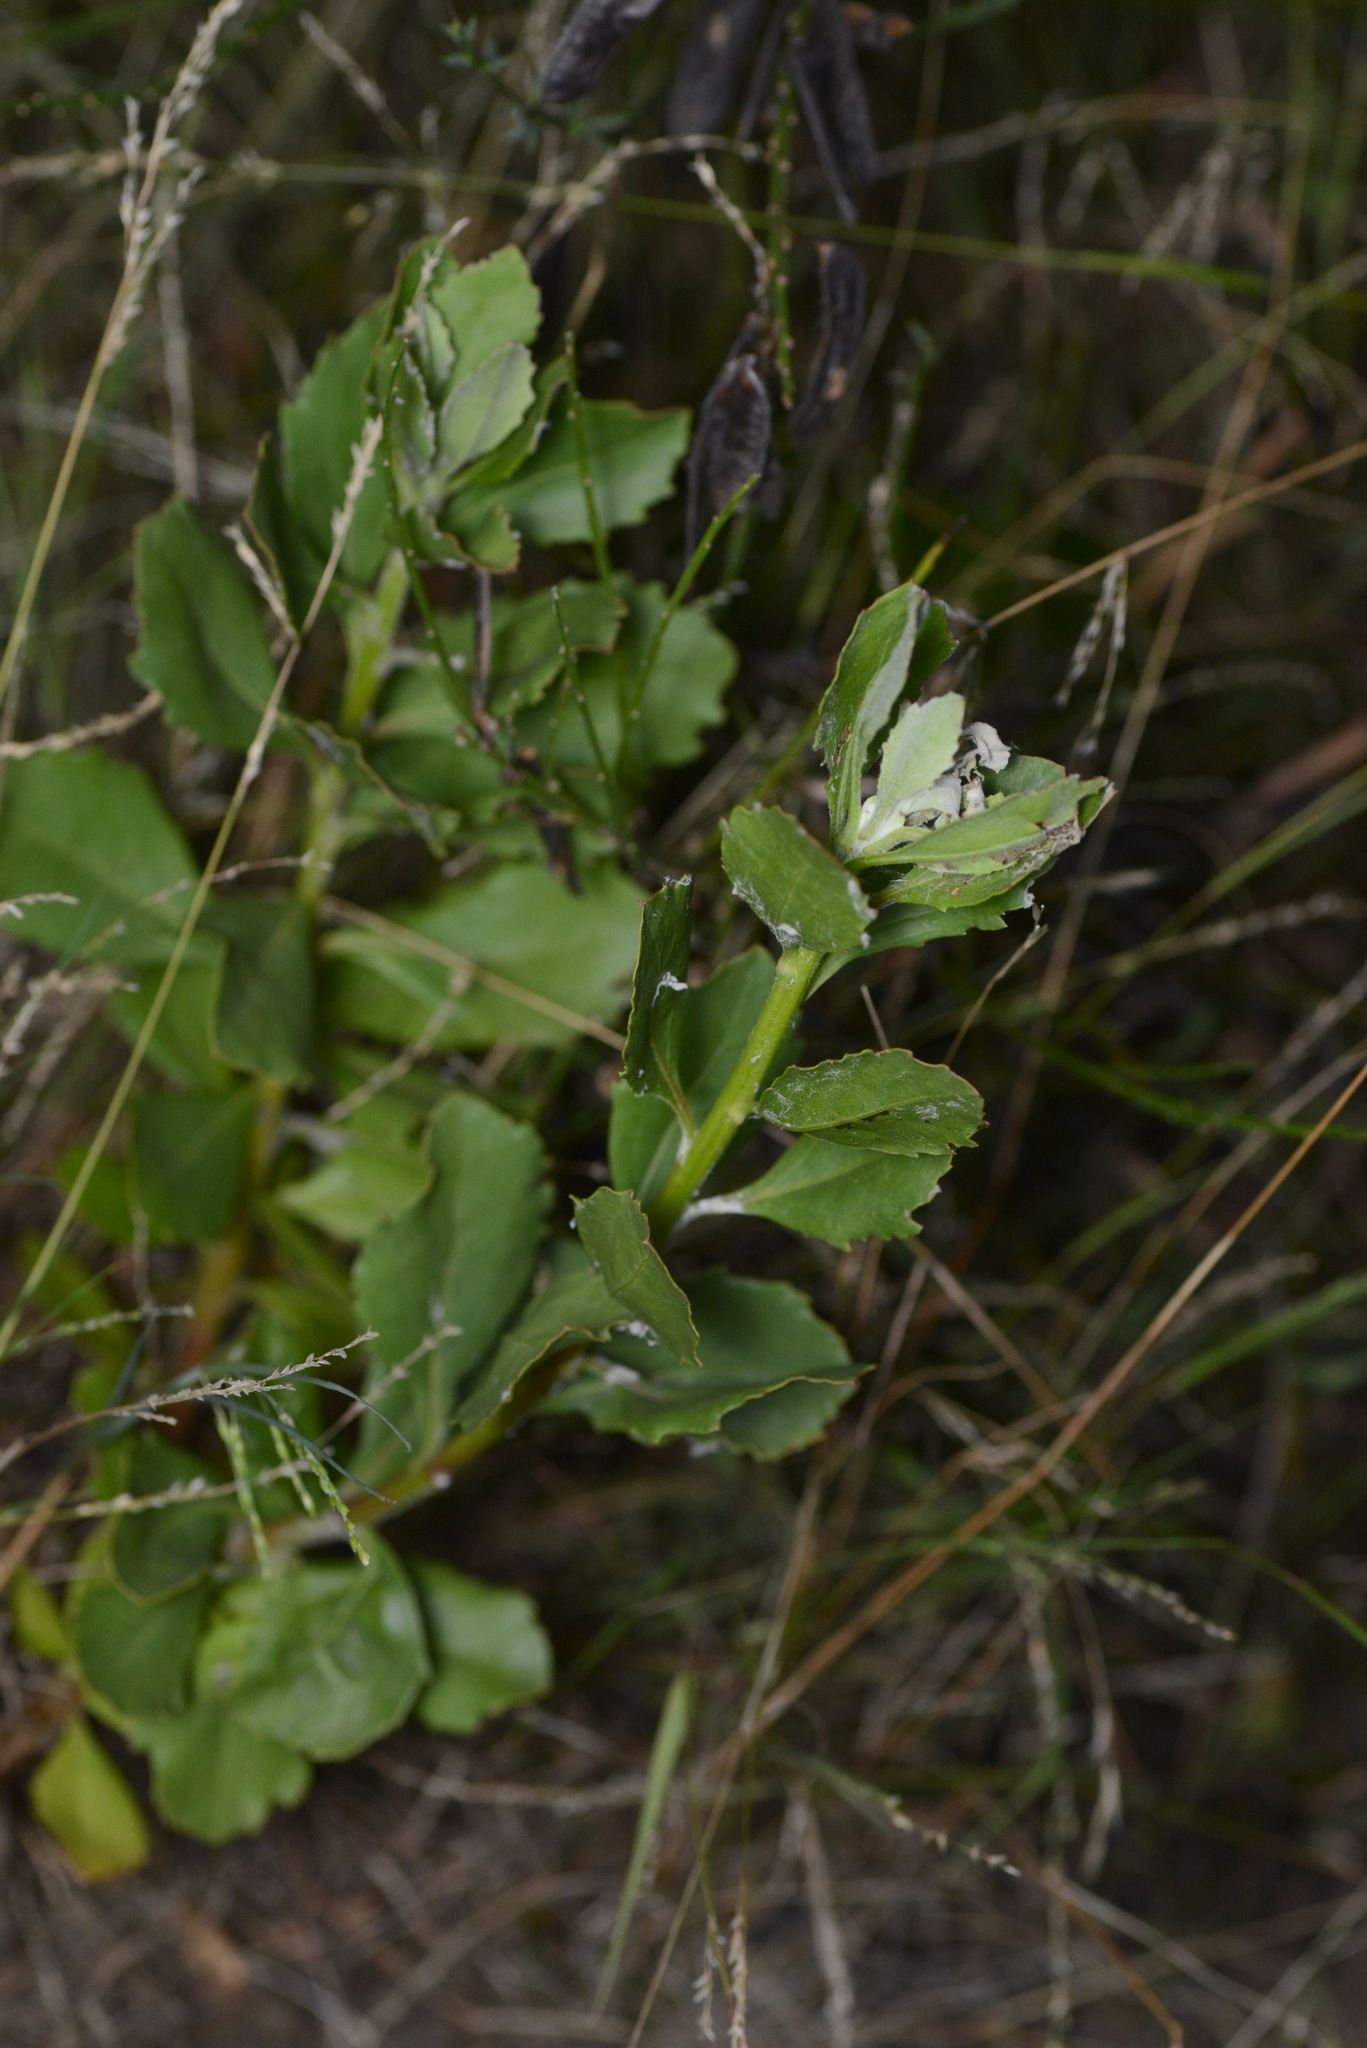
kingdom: Plantae
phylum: Tracheophyta
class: Magnoliopsida
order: Asterales
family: Asteraceae
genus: Osteospermum
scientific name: Osteospermum moniliferum
